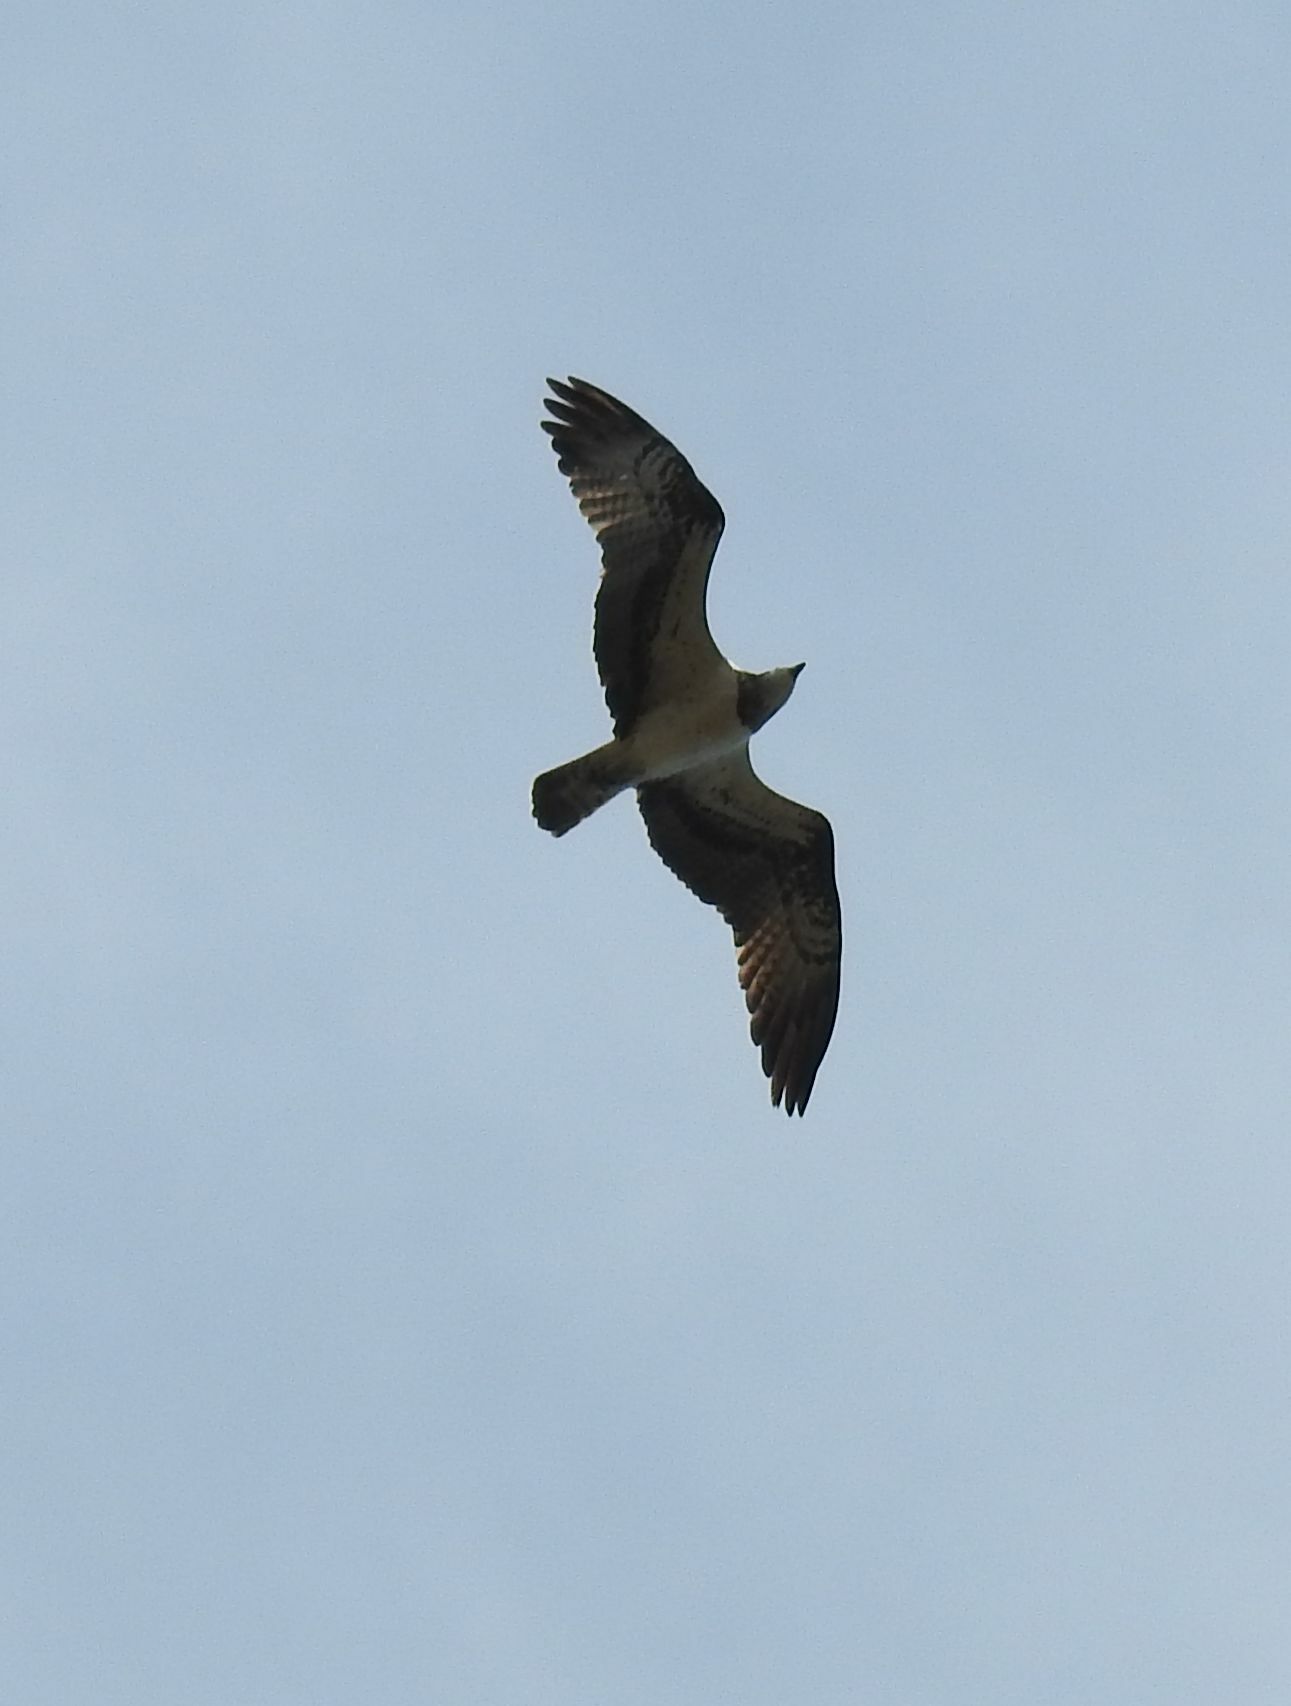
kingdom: Animalia
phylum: Chordata
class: Aves
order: Accipitriformes
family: Pandionidae
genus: Pandion
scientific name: Pandion haliaetus
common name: Osprey
